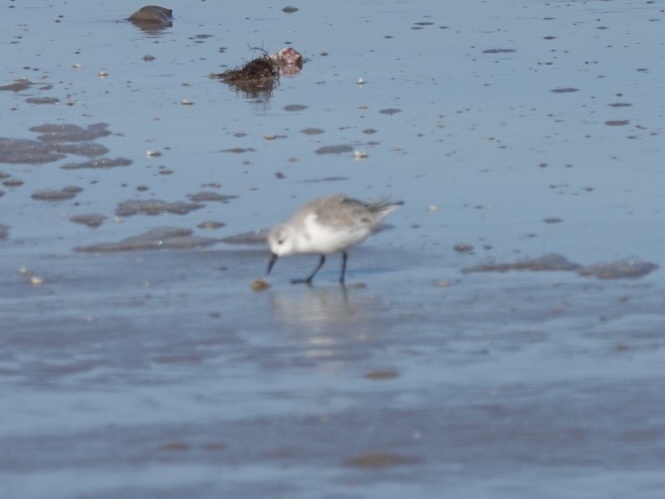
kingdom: Animalia
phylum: Chordata
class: Aves
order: Charadriiformes
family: Scolopacidae
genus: Calidris
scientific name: Calidris alba
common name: Sanderling
